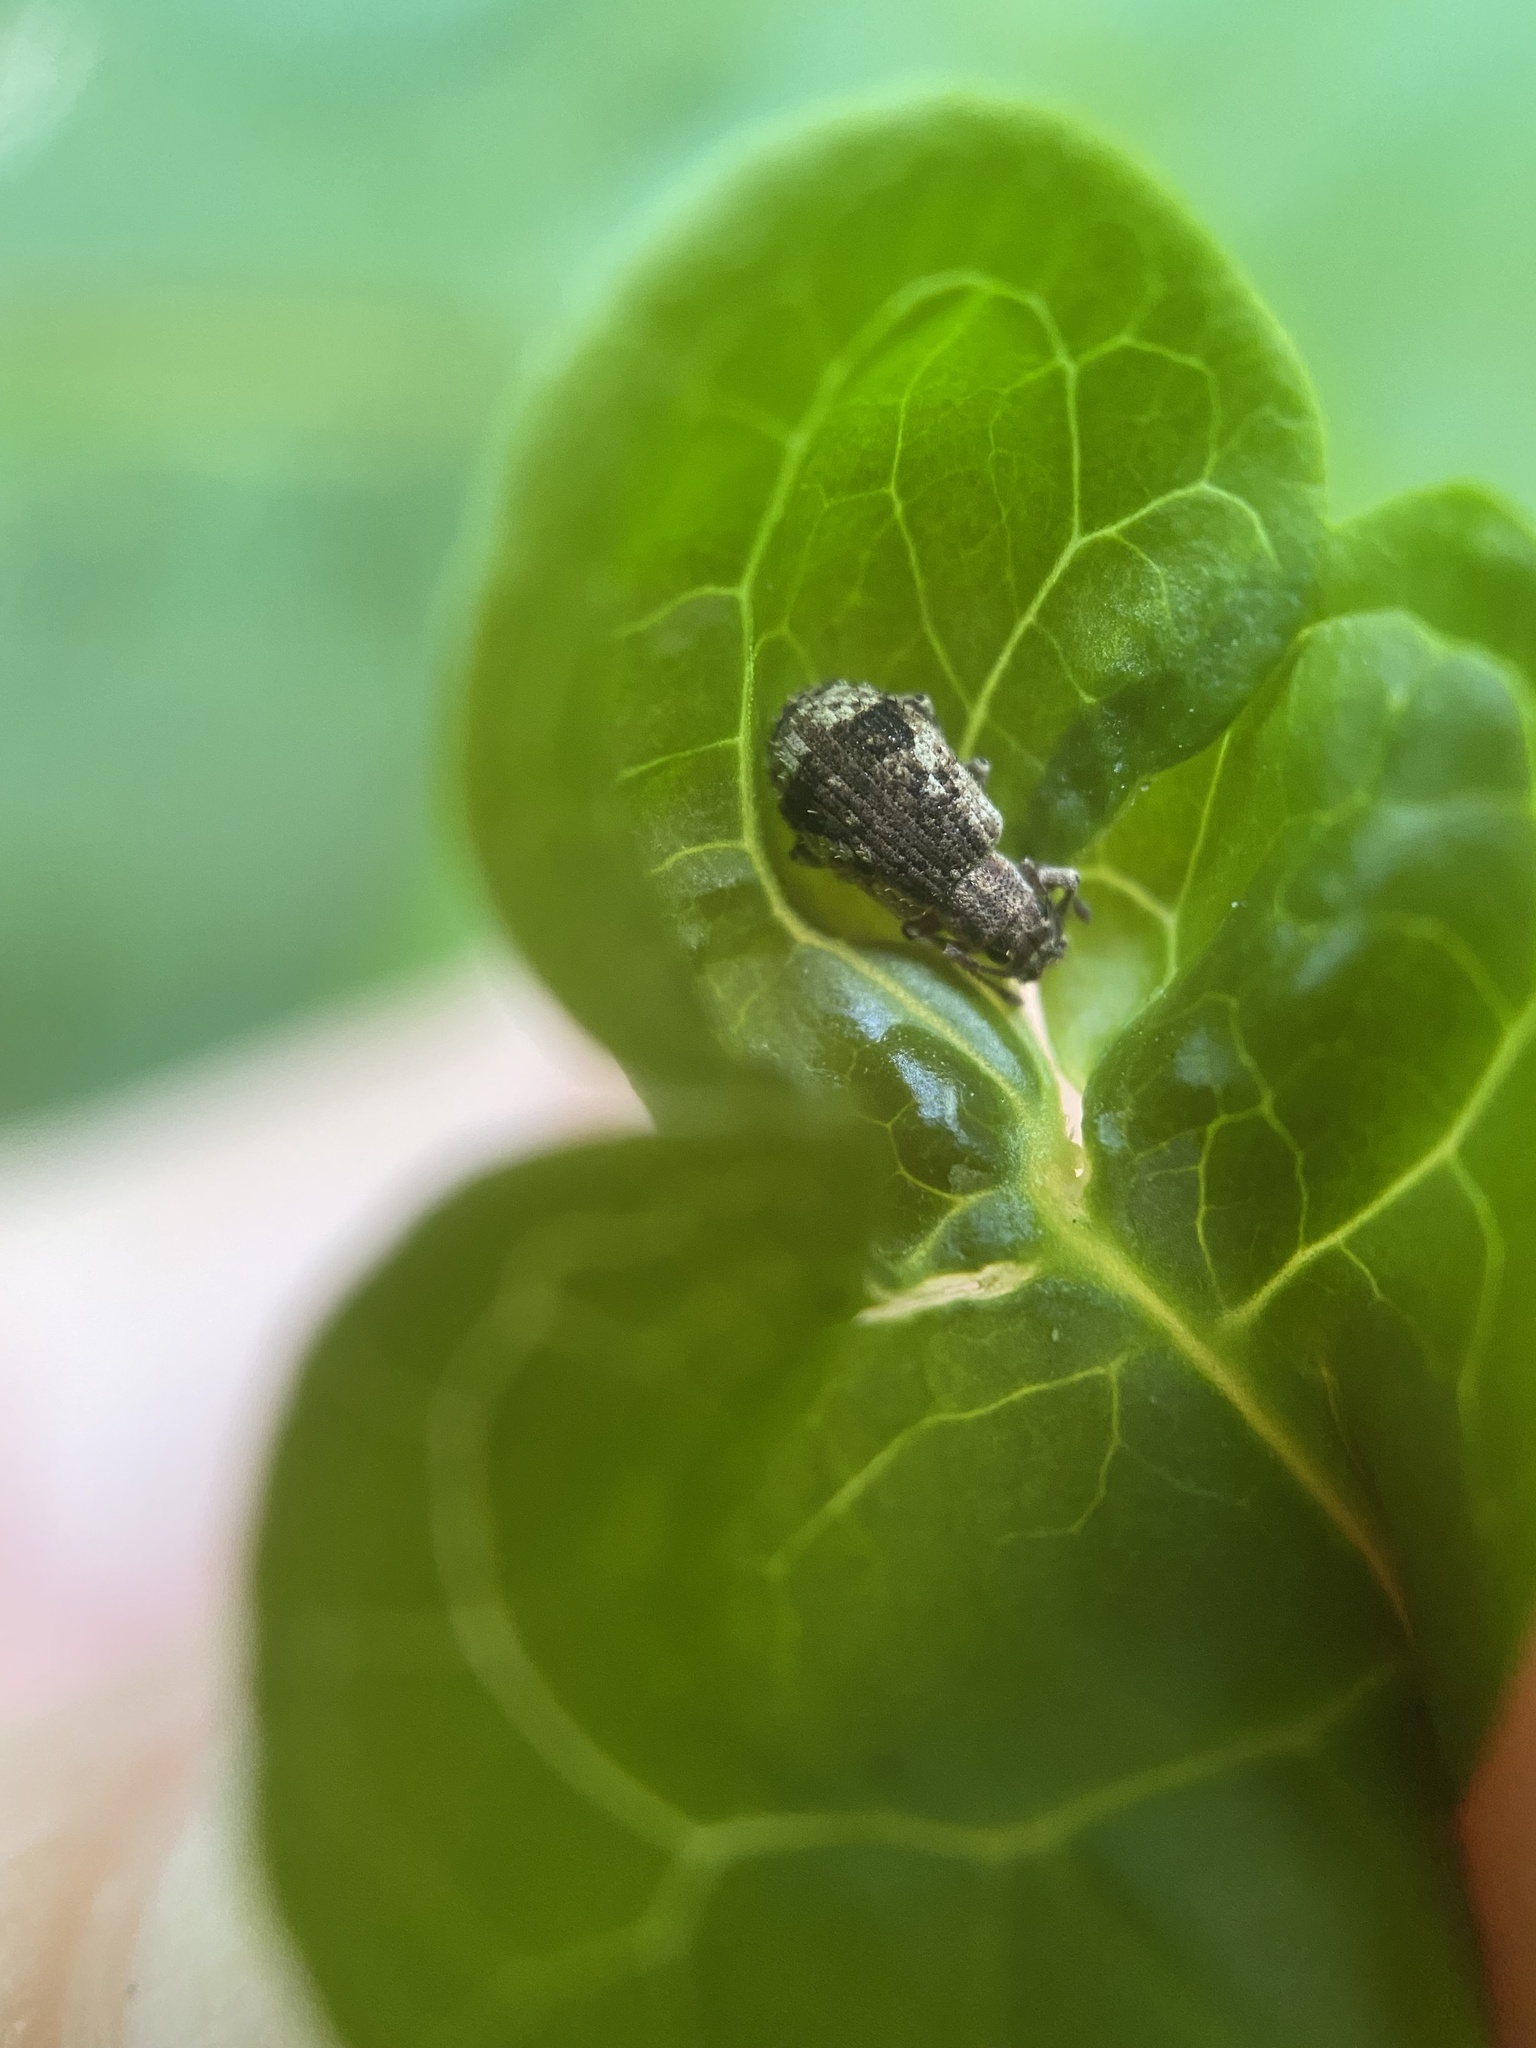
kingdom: Animalia
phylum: Arthropoda
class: Insecta
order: Coleoptera
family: Curculionidae
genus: Pseudoedophrys
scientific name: Pseudoedophrys hilleri
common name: Weevil
